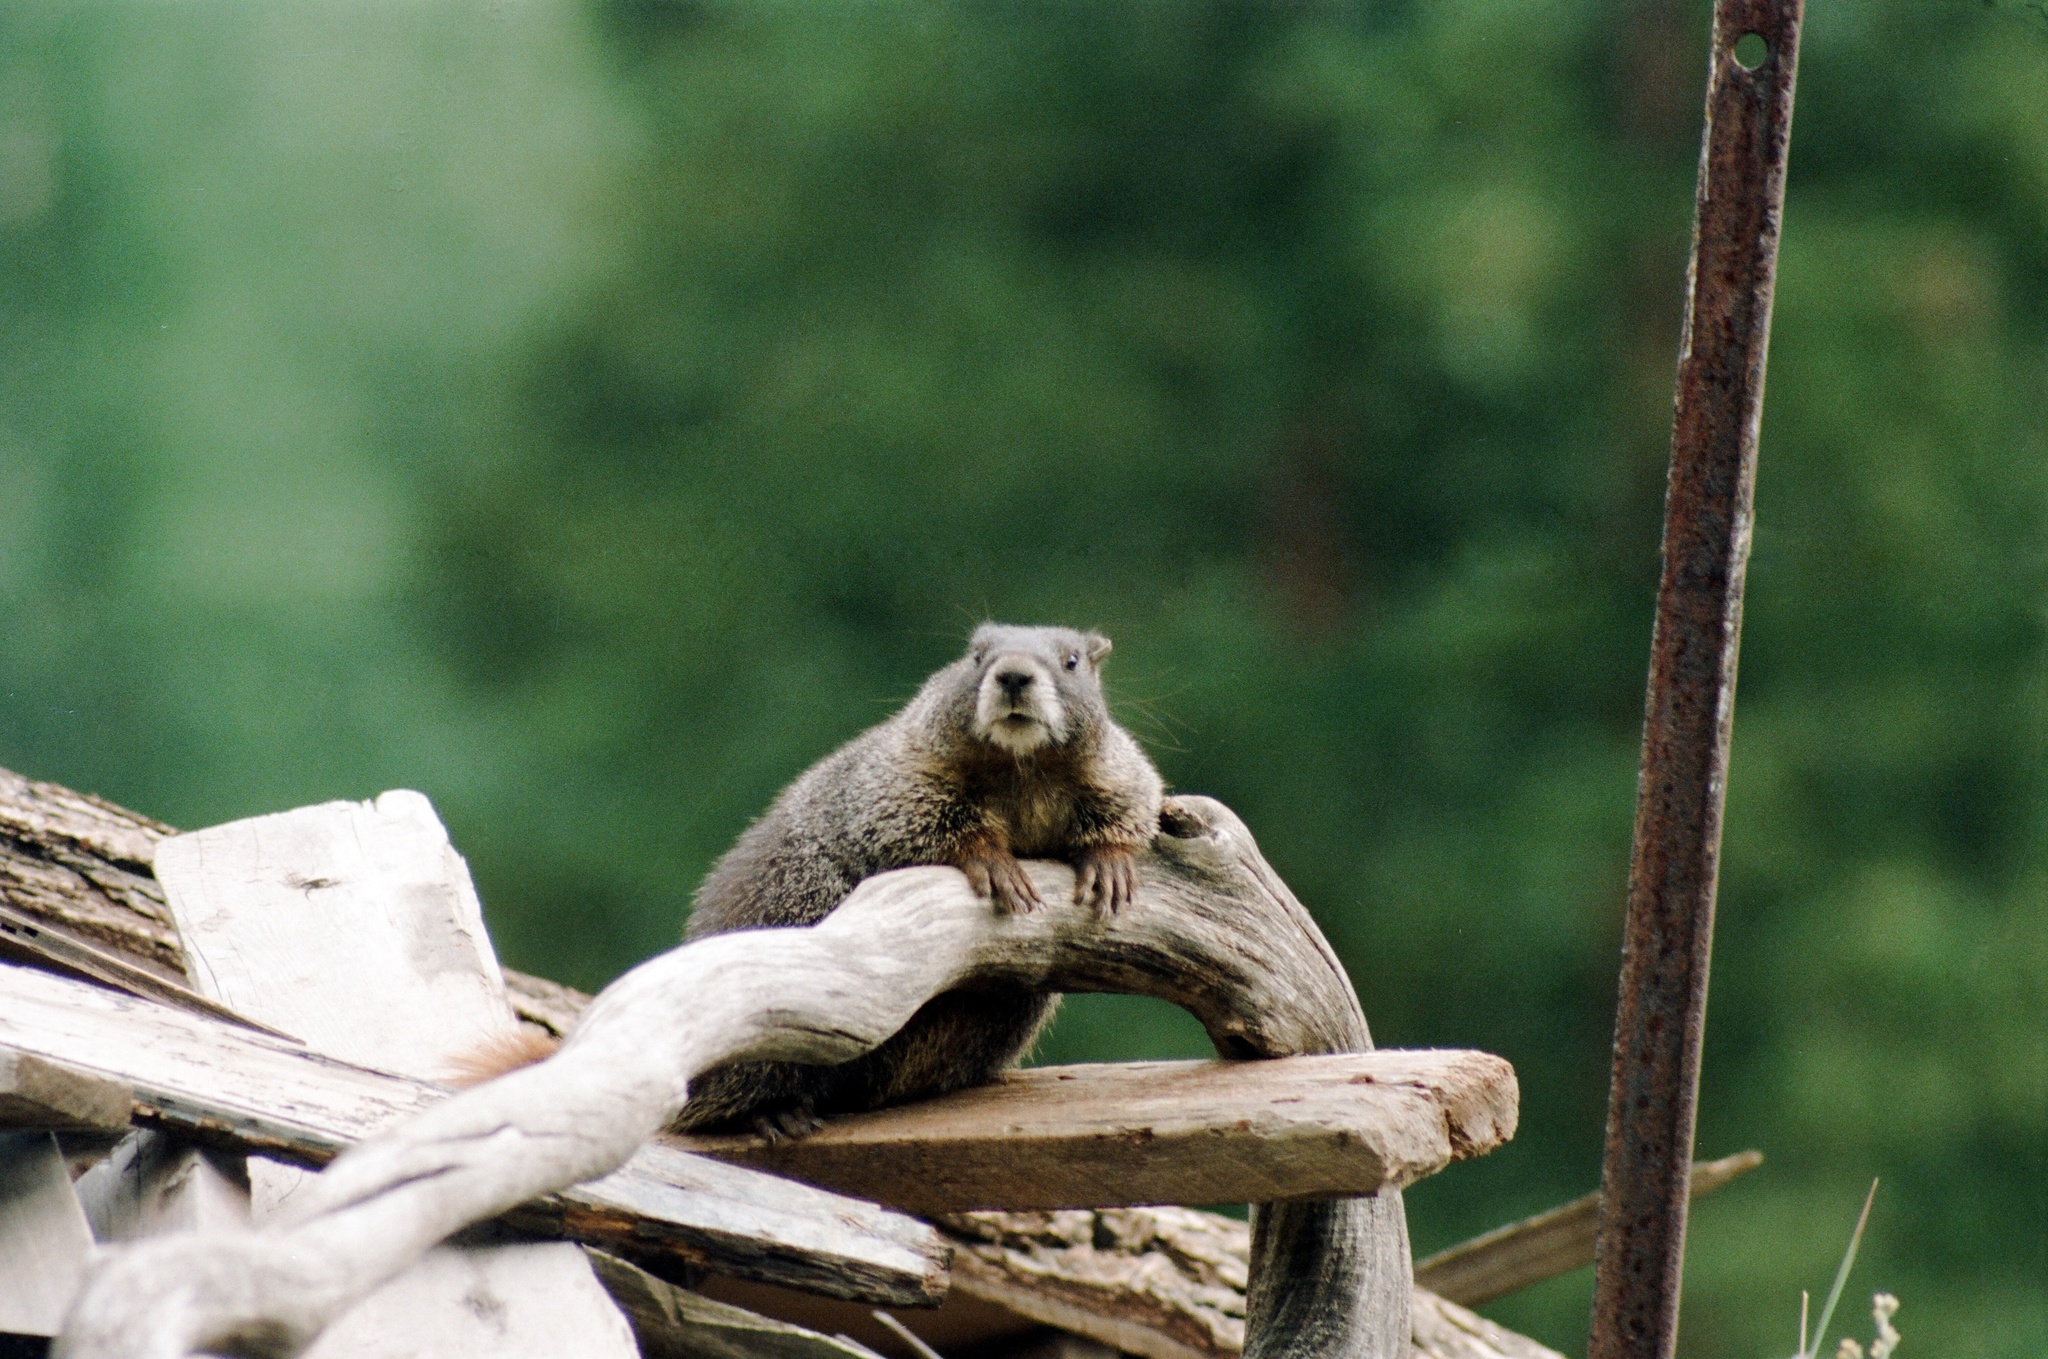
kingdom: Animalia
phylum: Chordata
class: Mammalia
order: Rodentia
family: Sciuridae
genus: Marmota
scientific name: Marmota flaviventris
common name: Yellow-bellied marmot
